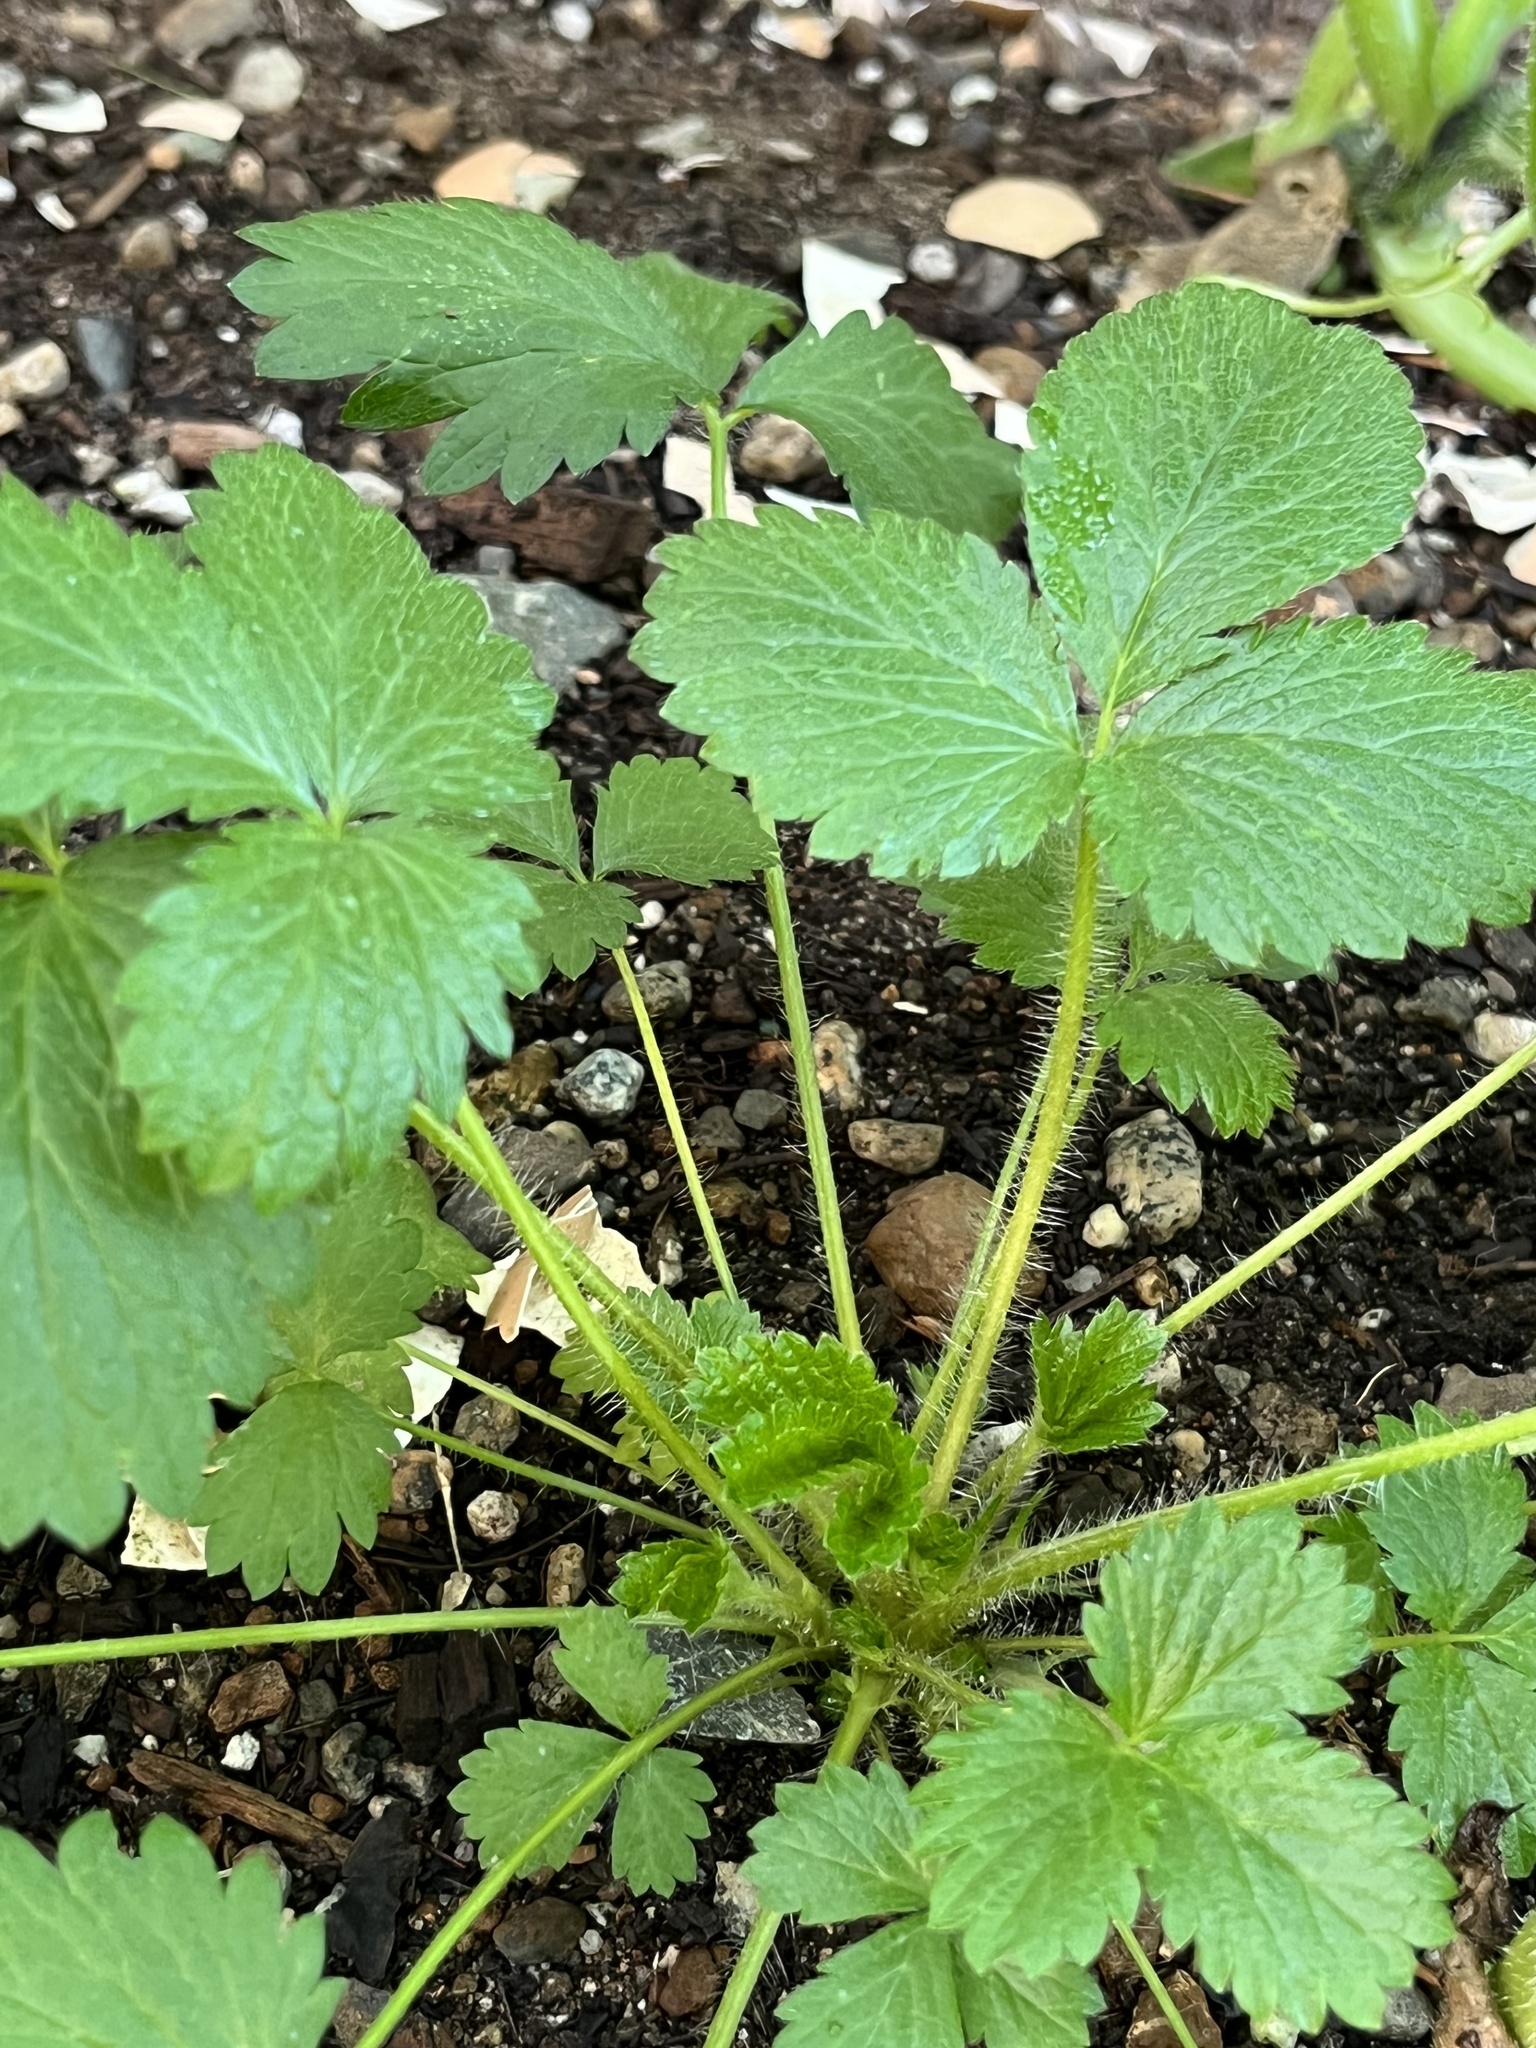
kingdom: Plantae
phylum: Tracheophyta
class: Magnoliopsida
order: Rosales
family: Rosaceae
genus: Fragaria
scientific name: Fragaria vesca
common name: Wild strawberry
